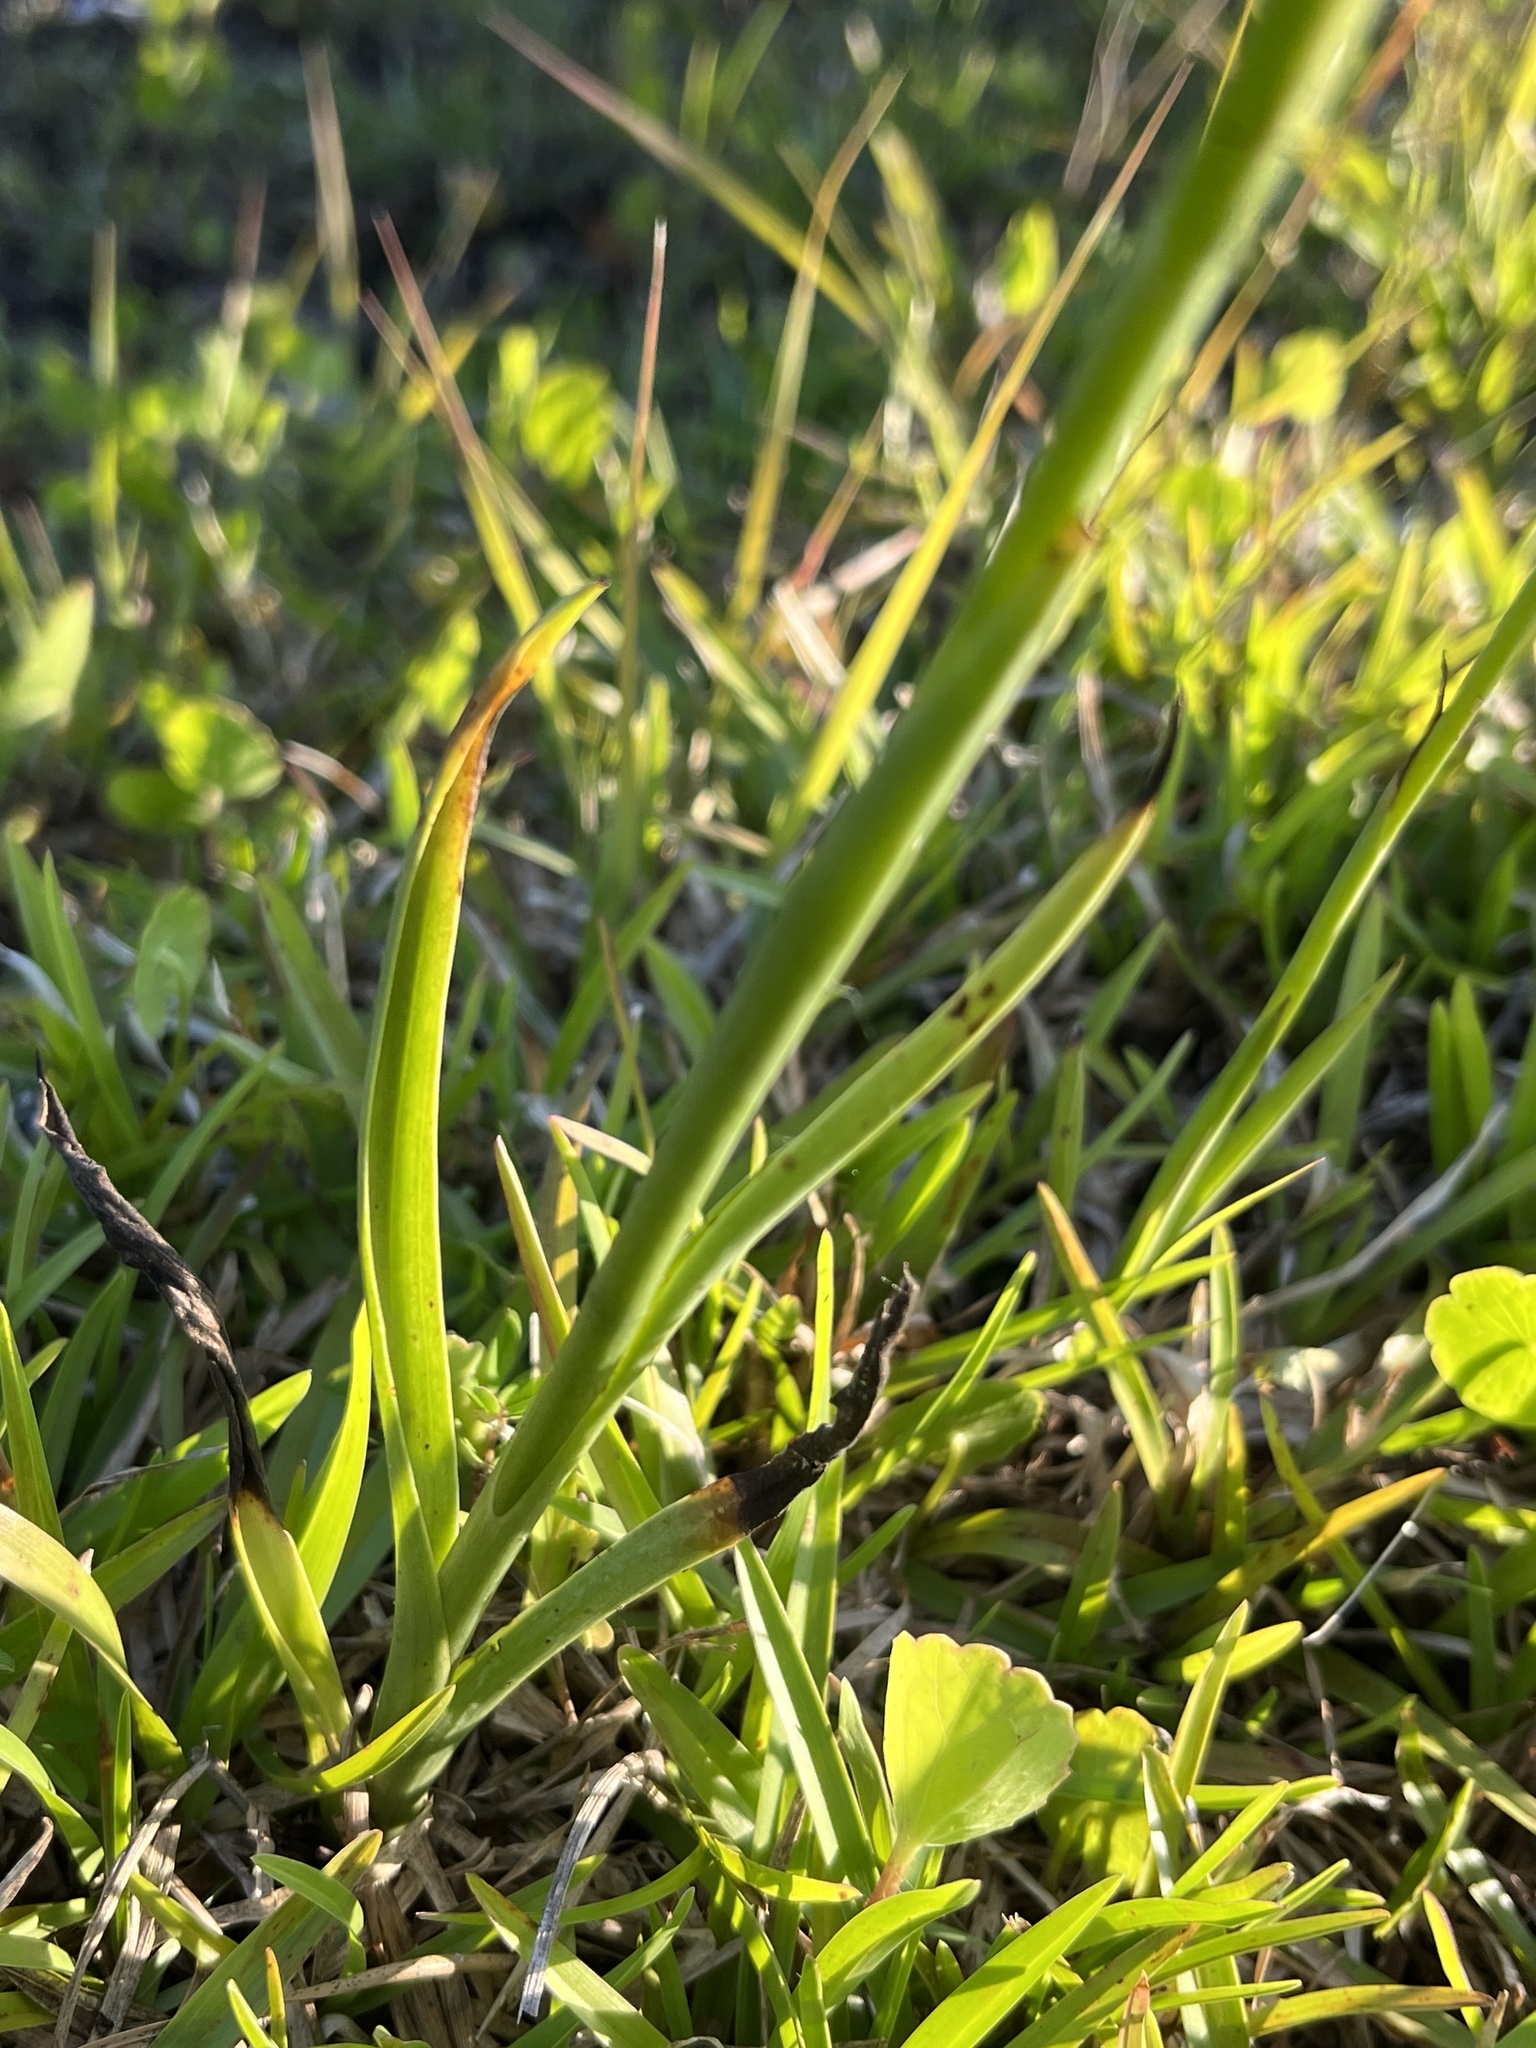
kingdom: Plantae
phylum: Tracheophyta
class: Liliopsida
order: Asparagales
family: Orchidaceae
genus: Spiranthes
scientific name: Spiranthes vernalis
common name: Spring ladies'-tresses
